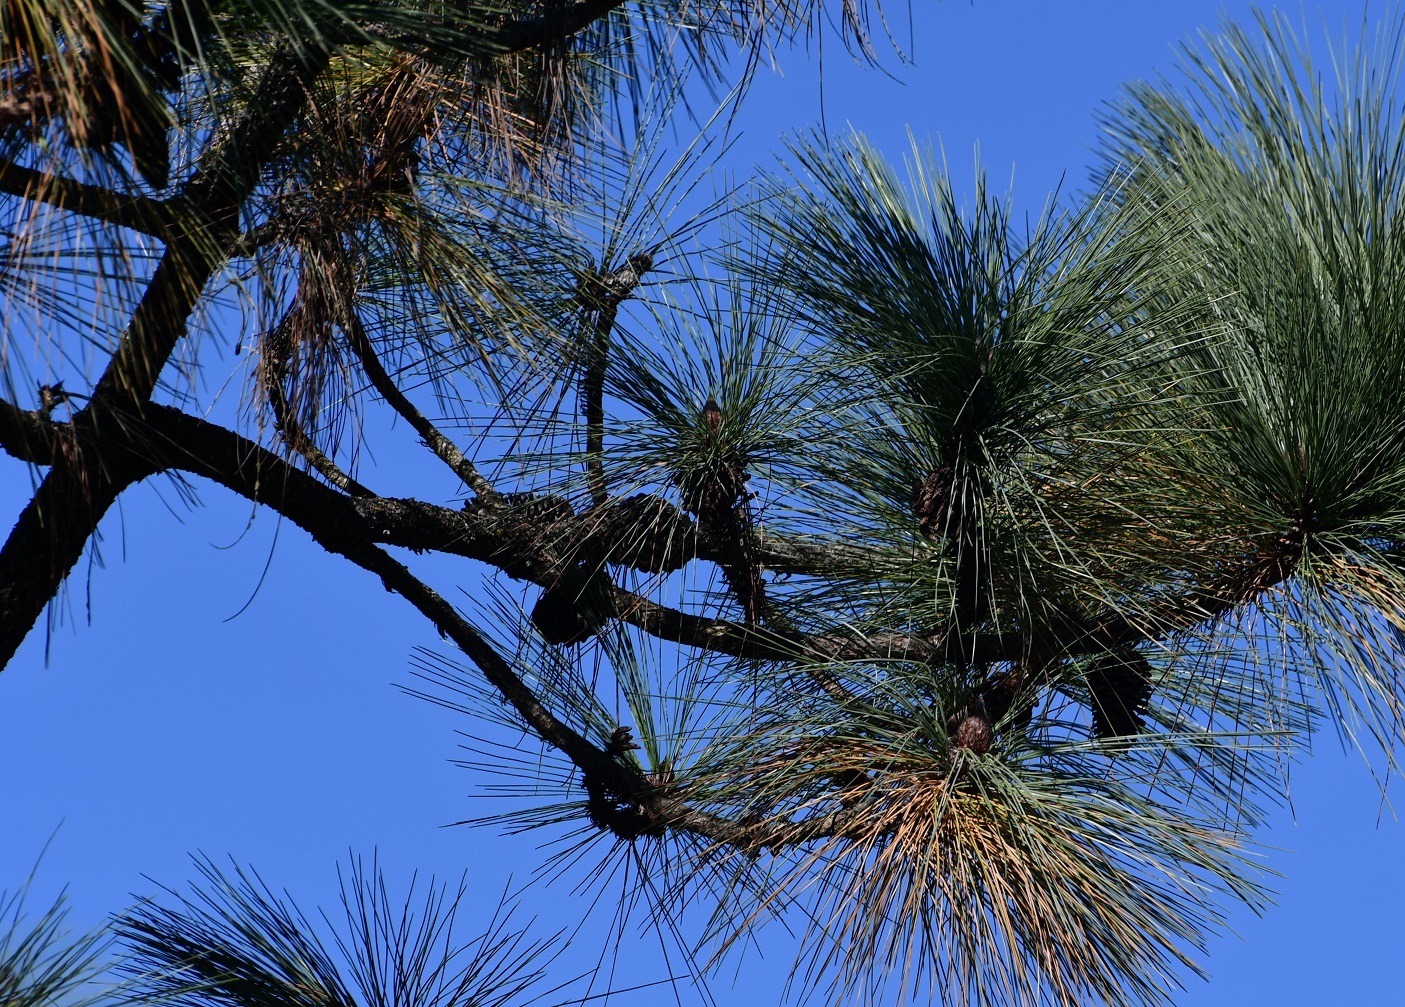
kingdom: Plantae
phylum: Tracheophyta
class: Pinopsida
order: Pinales
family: Pinaceae
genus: Pinus
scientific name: Pinus montezumae
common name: Montezuma pine
